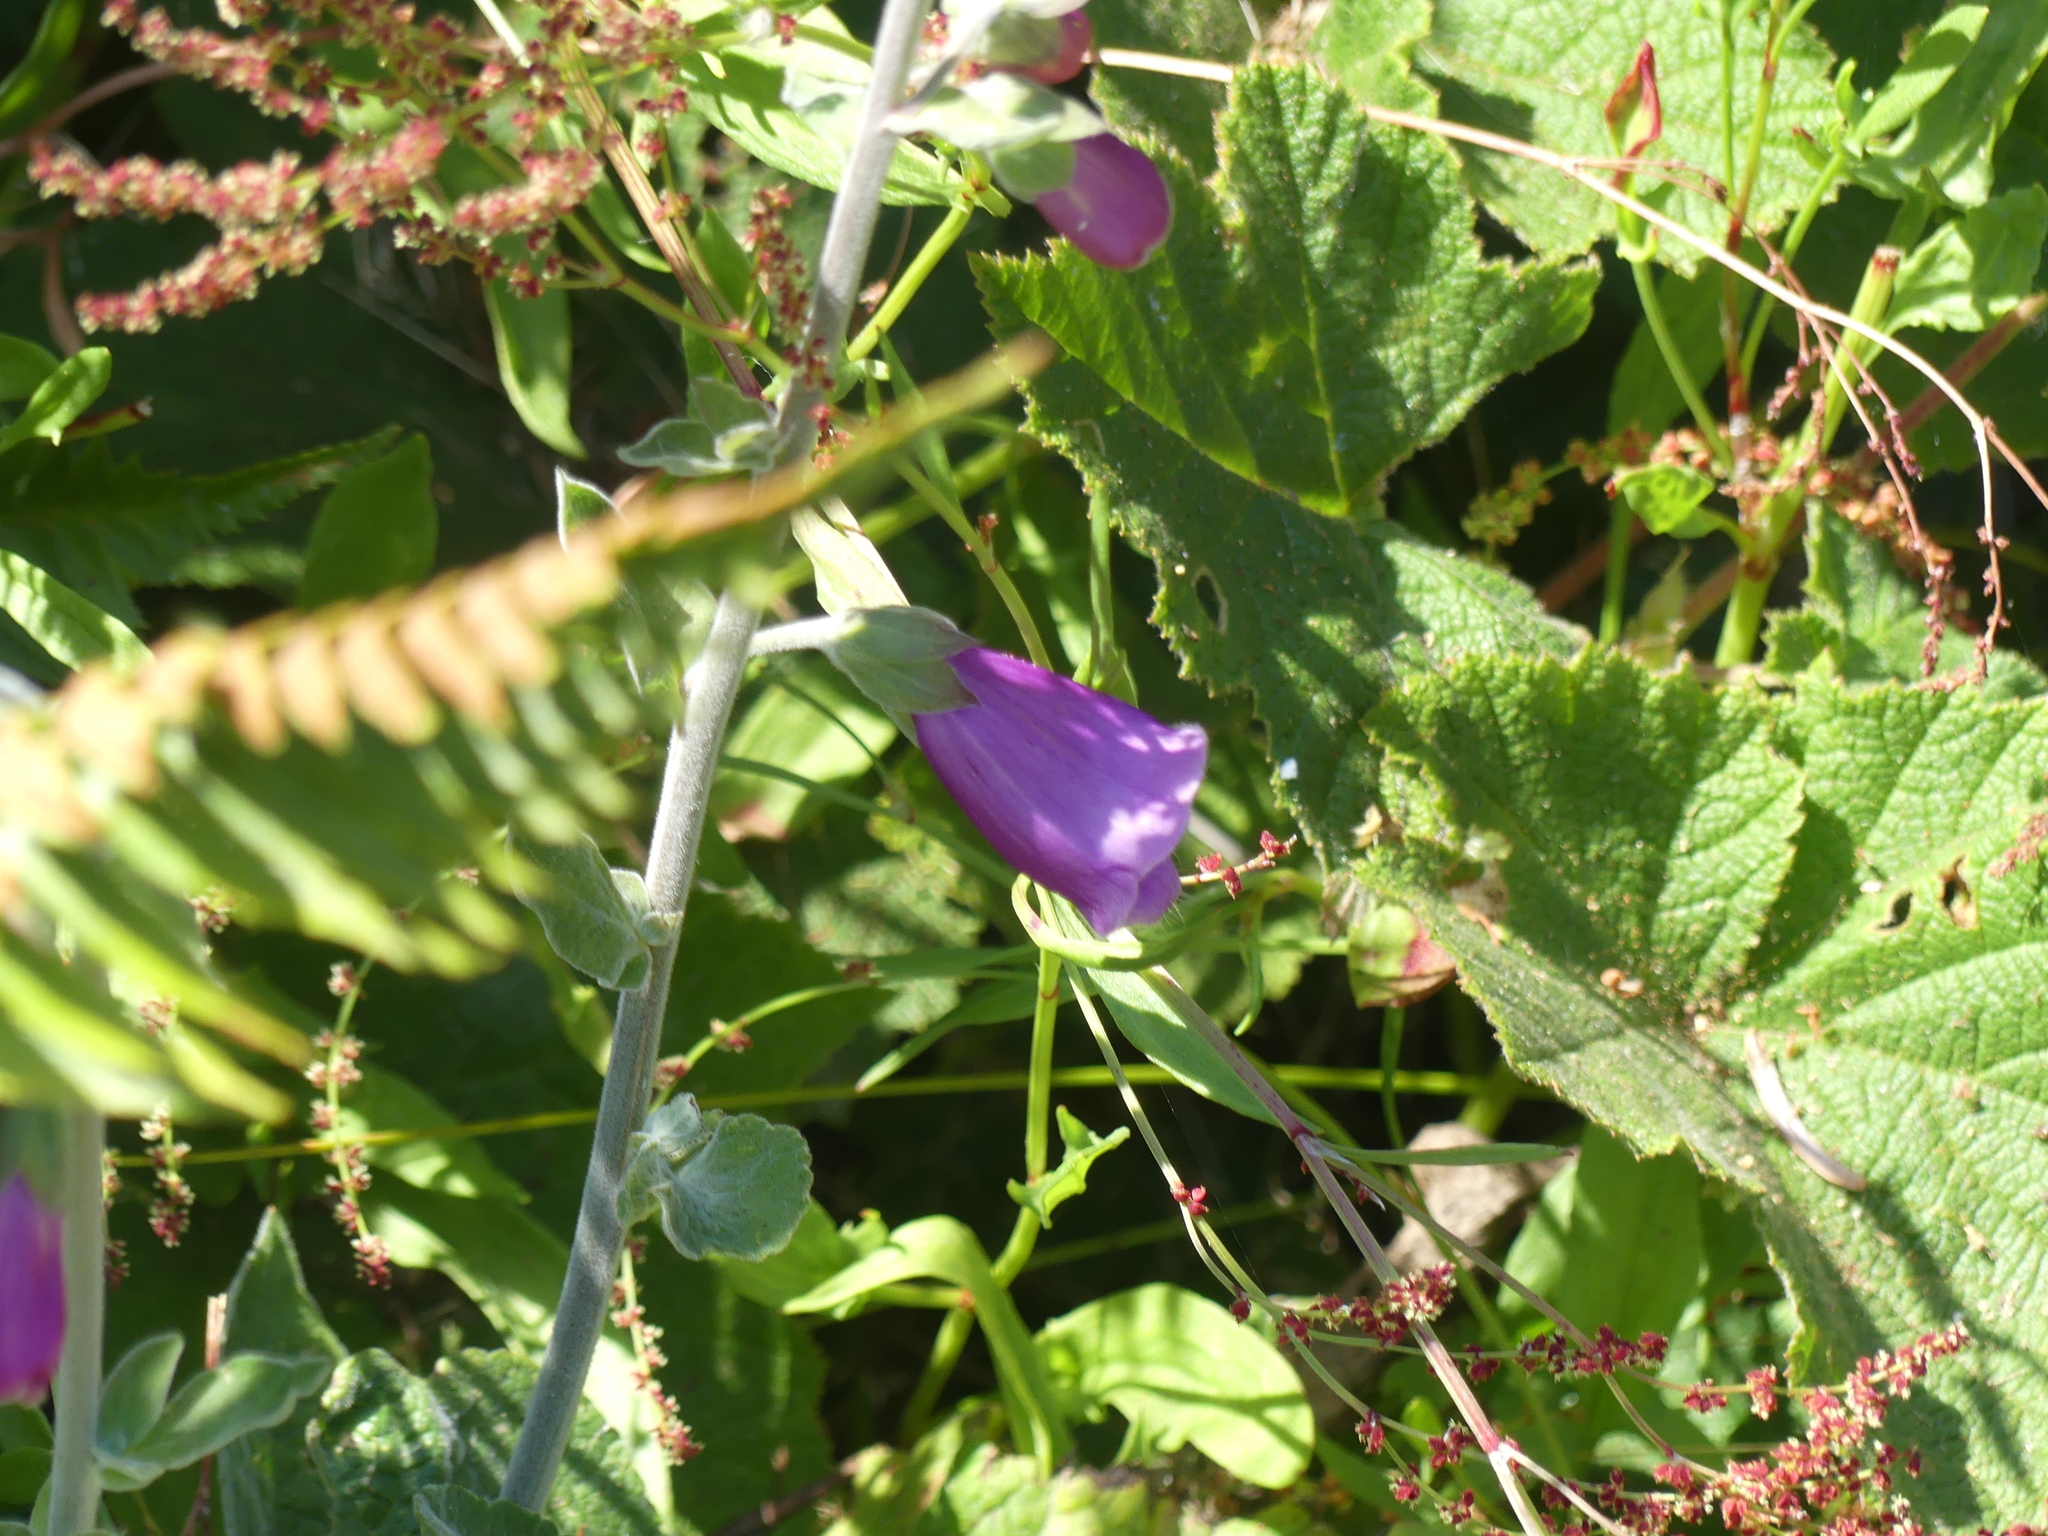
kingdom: Plantae
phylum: Tracheophyta
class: Magnoliopsida
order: Lamiales
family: Plantaginaceae
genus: Digitalis
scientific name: Digitalis purpurea
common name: Foxglove
